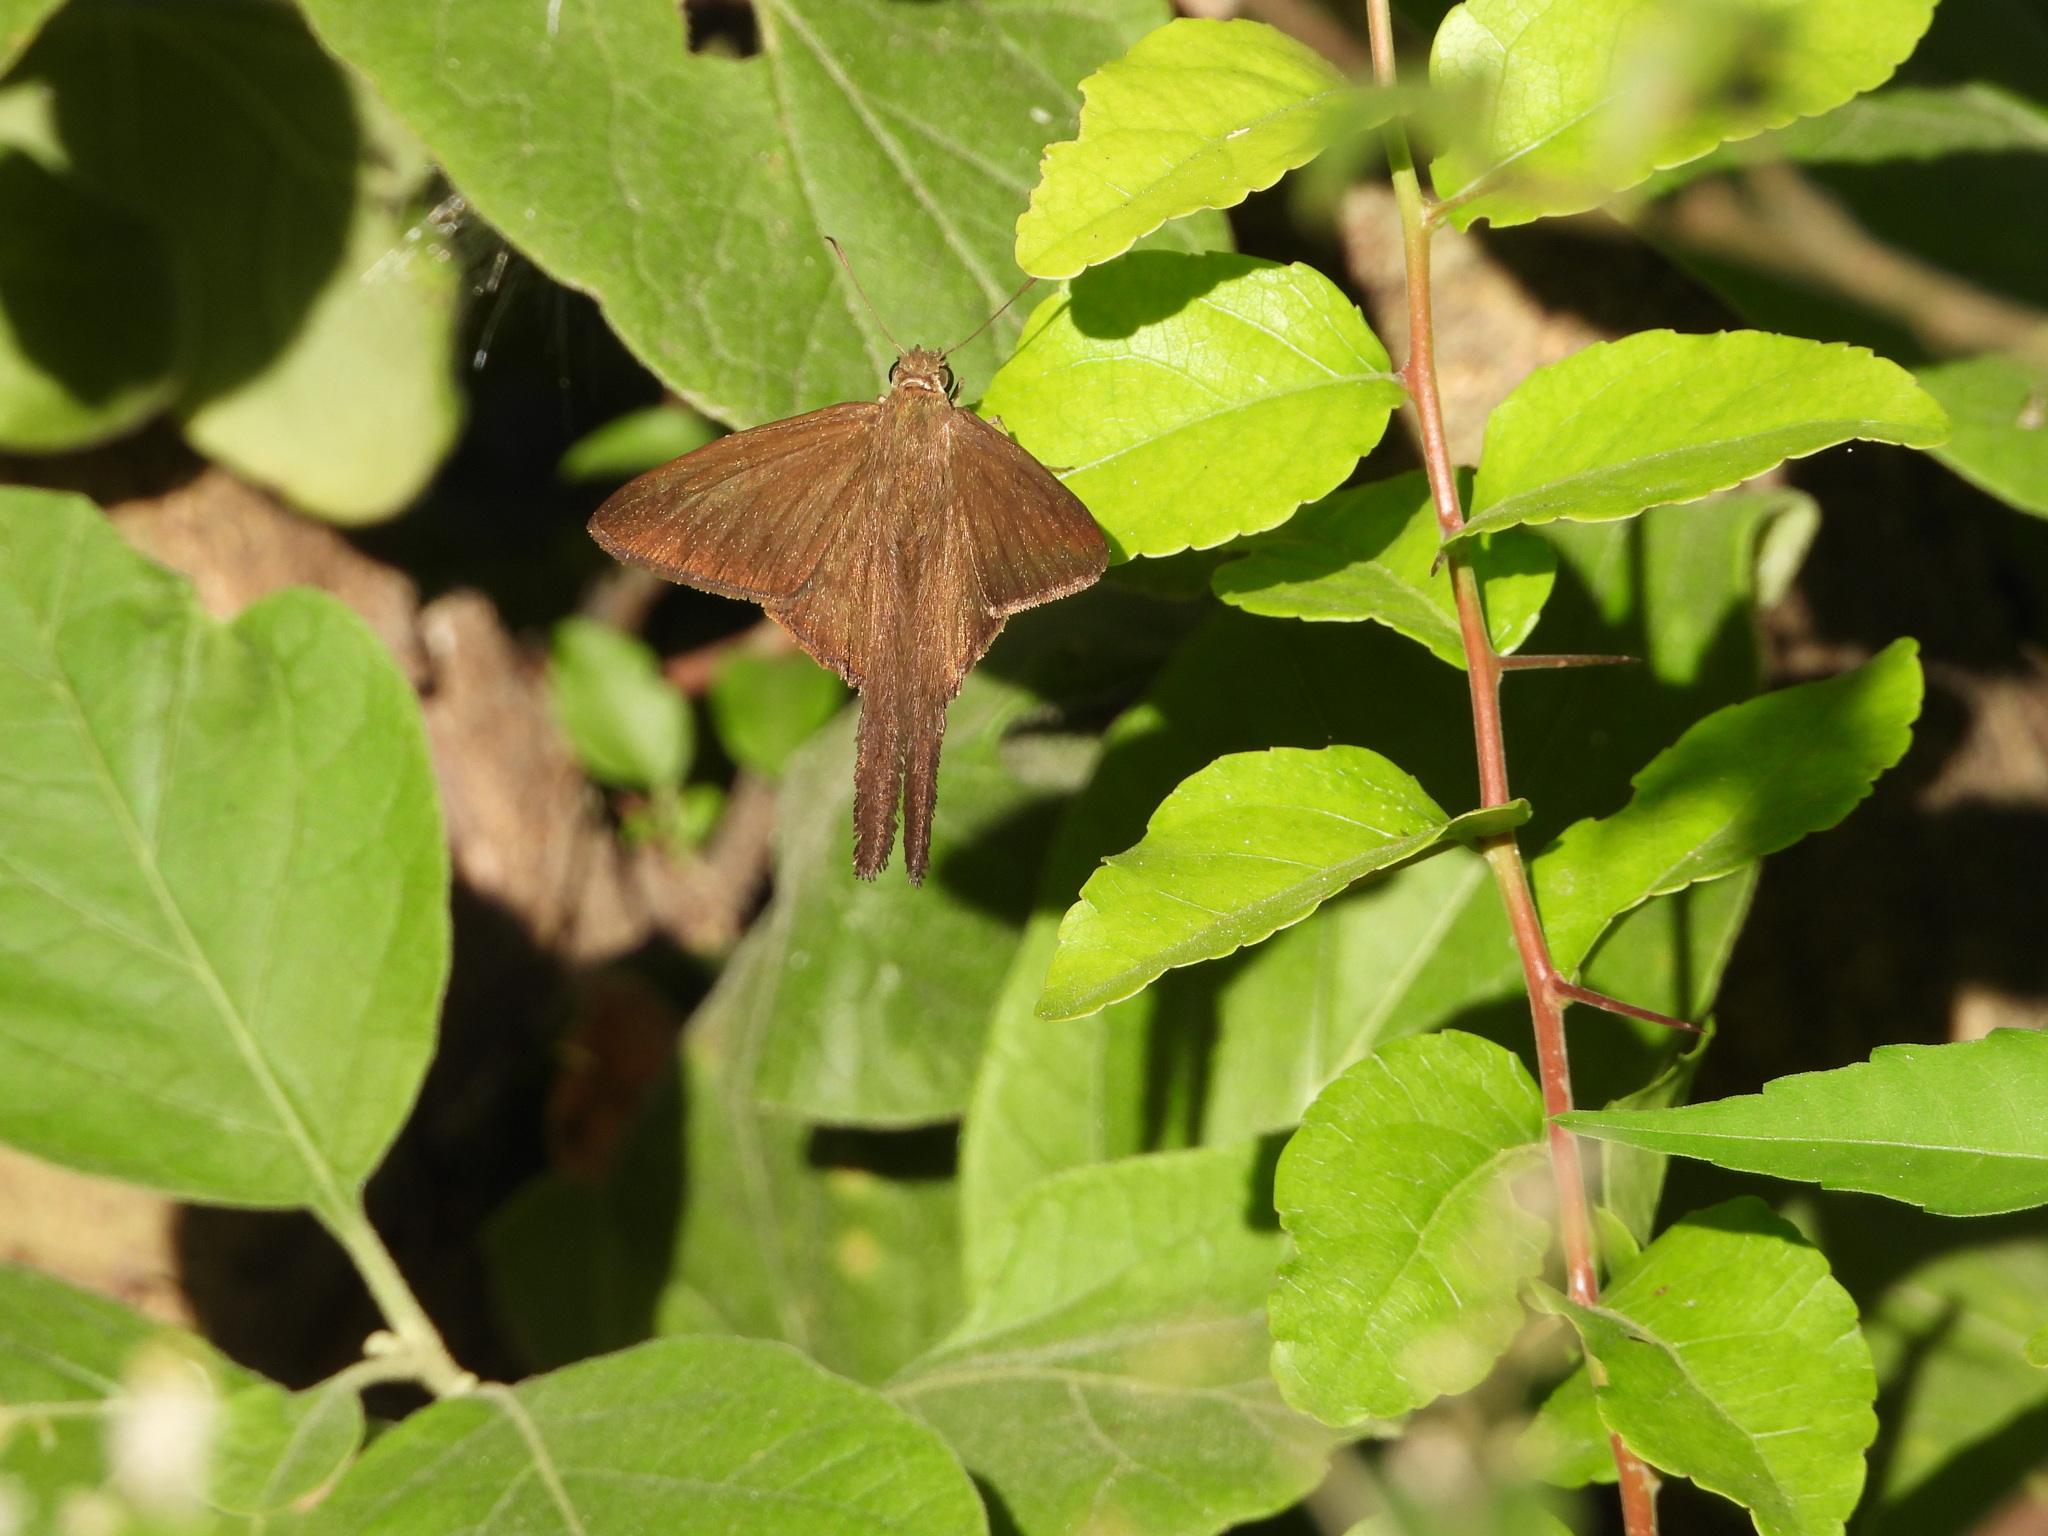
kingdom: Animalia
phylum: Arthropoda
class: Insecta
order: Lepidoptera
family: Hesperiidae
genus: Urbanus
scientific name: Urbanus procne
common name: Brown longtail
